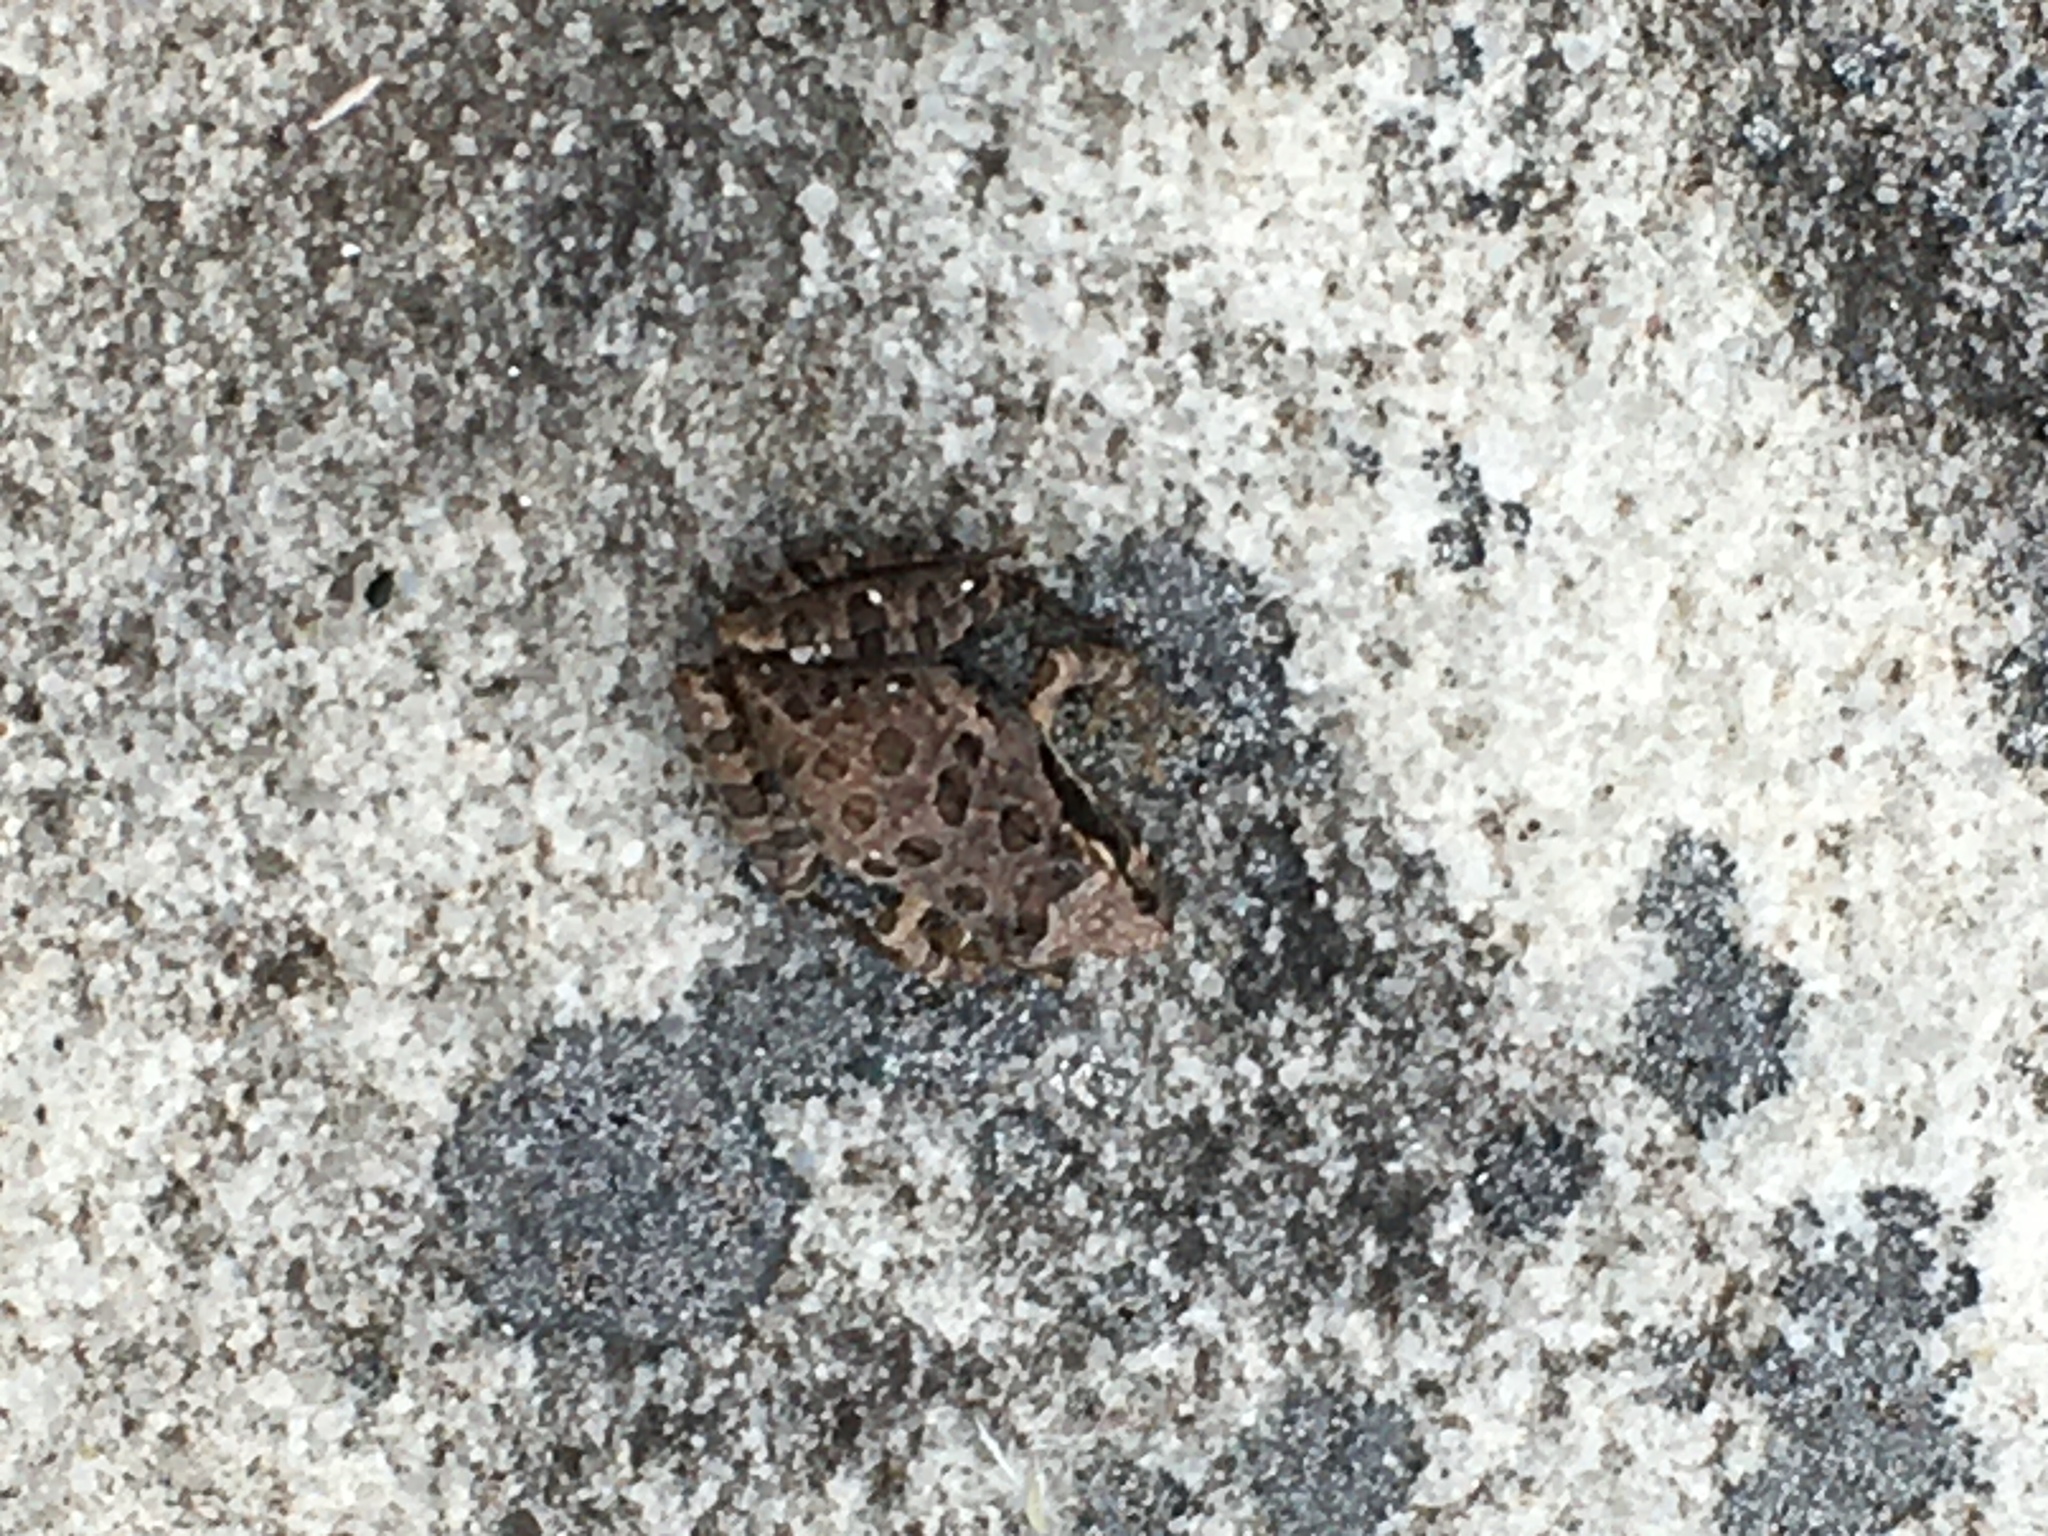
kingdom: Animalia
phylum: Chordata
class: Amphibia
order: Anura
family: Pyxicephalidae
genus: Strongylopus
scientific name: Strongylopus grayii
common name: Gray's stream frog
